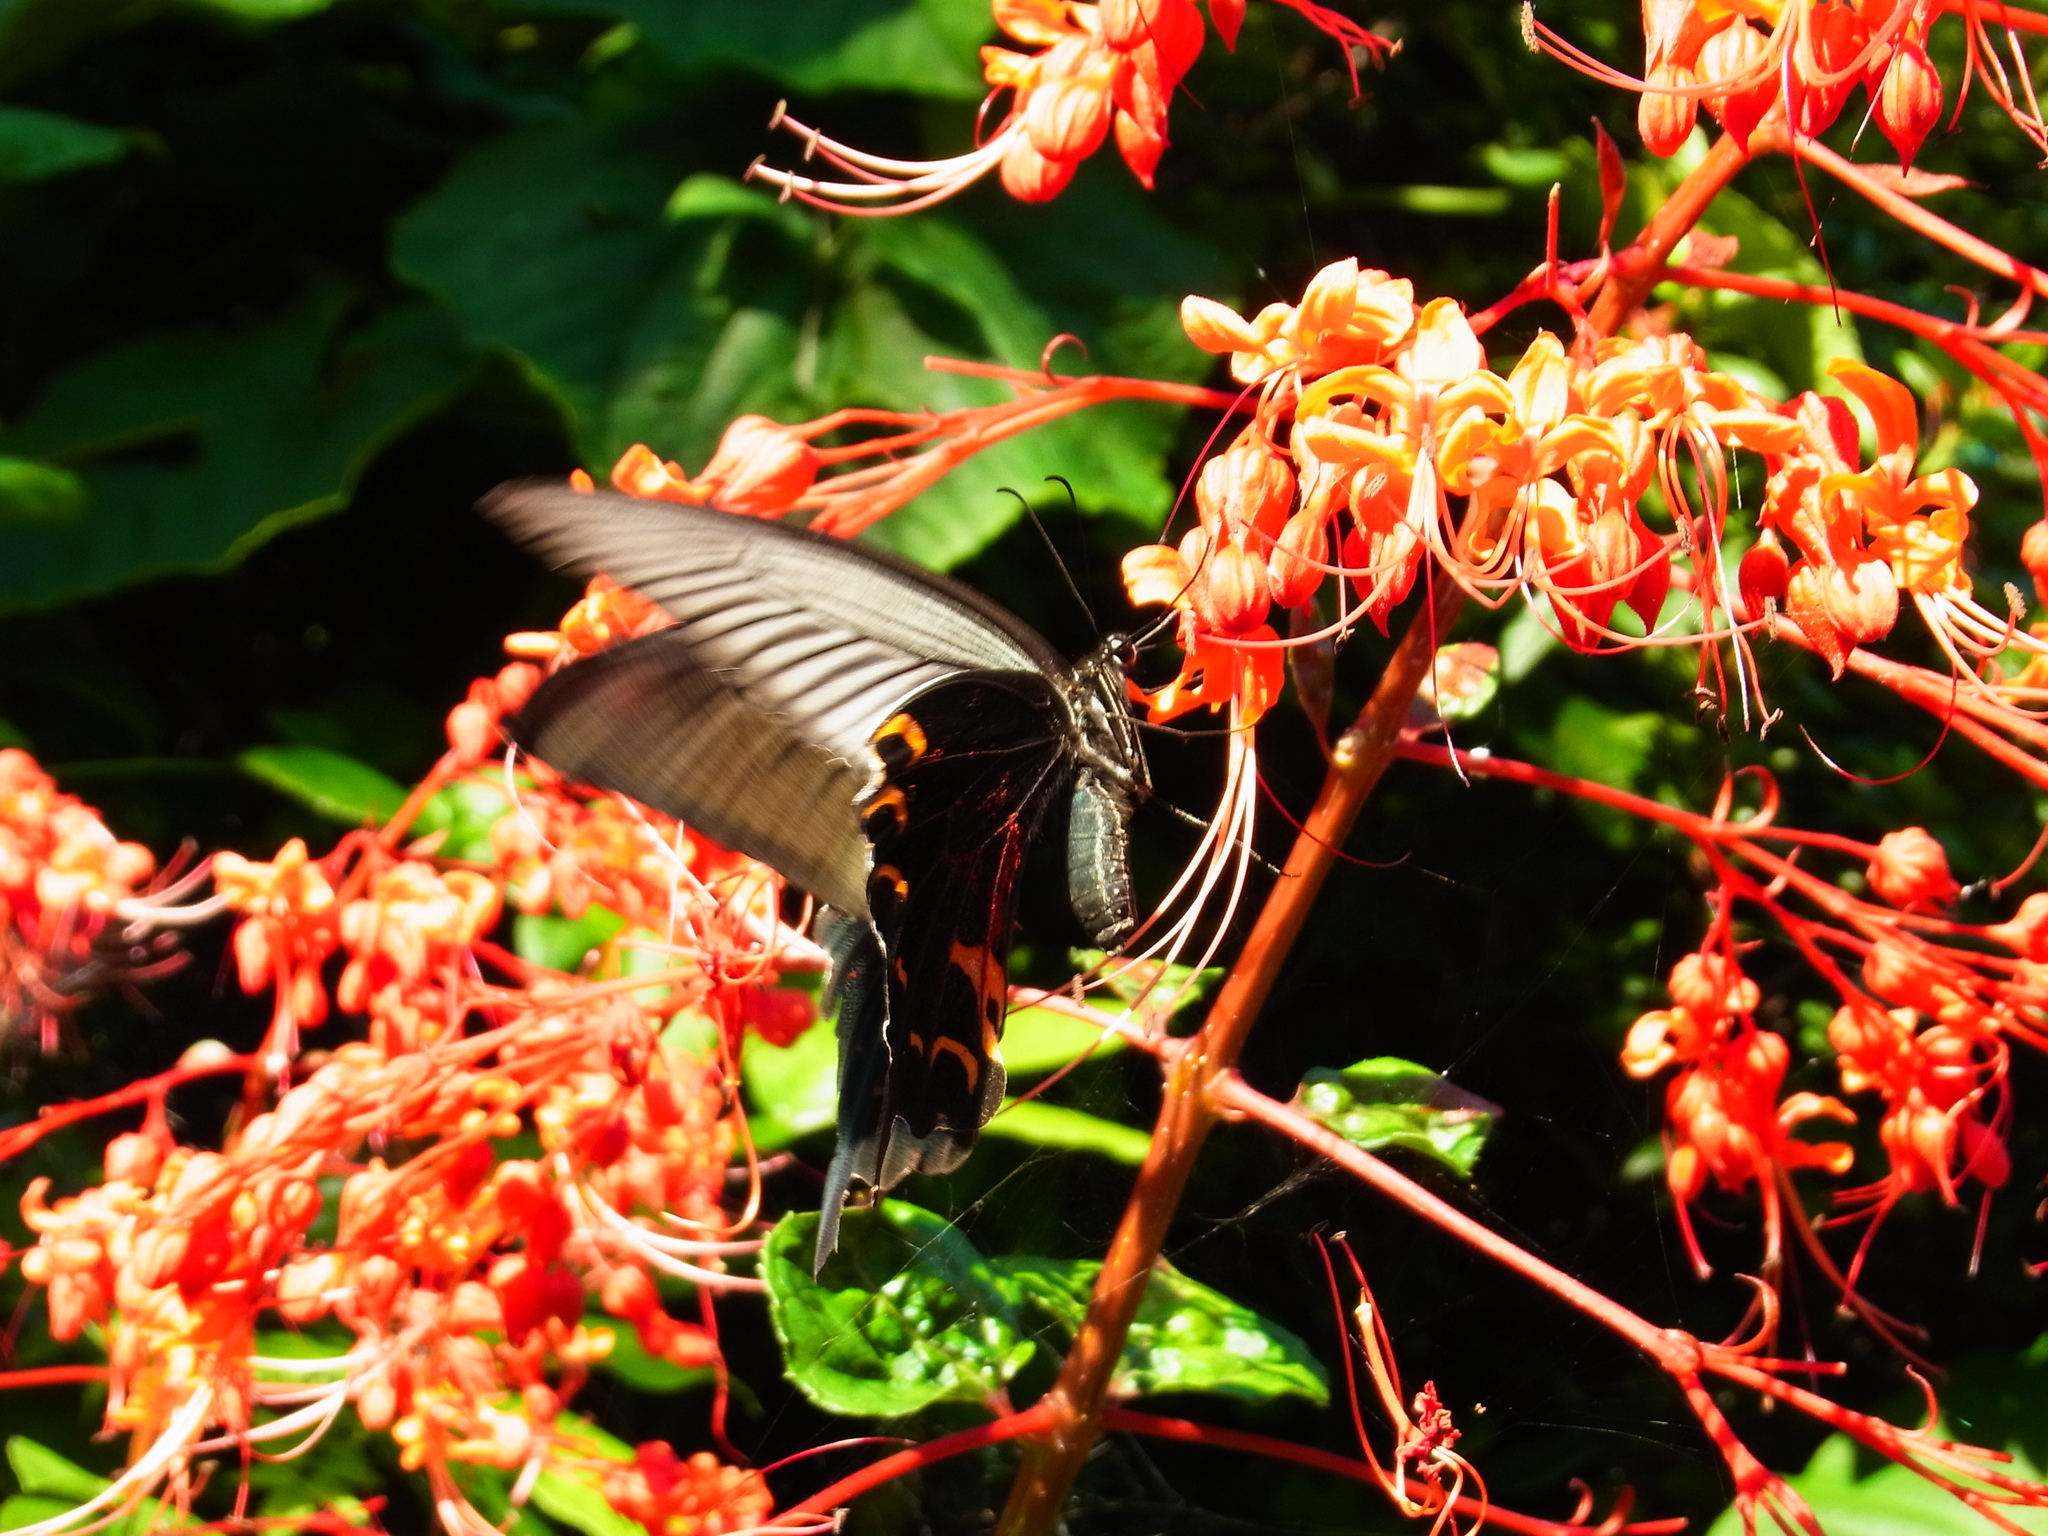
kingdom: Animalia
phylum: Arthropoda
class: Insecta
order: Lepidoptera
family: Papilionidae
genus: Papilio
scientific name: Papilio demetrius
